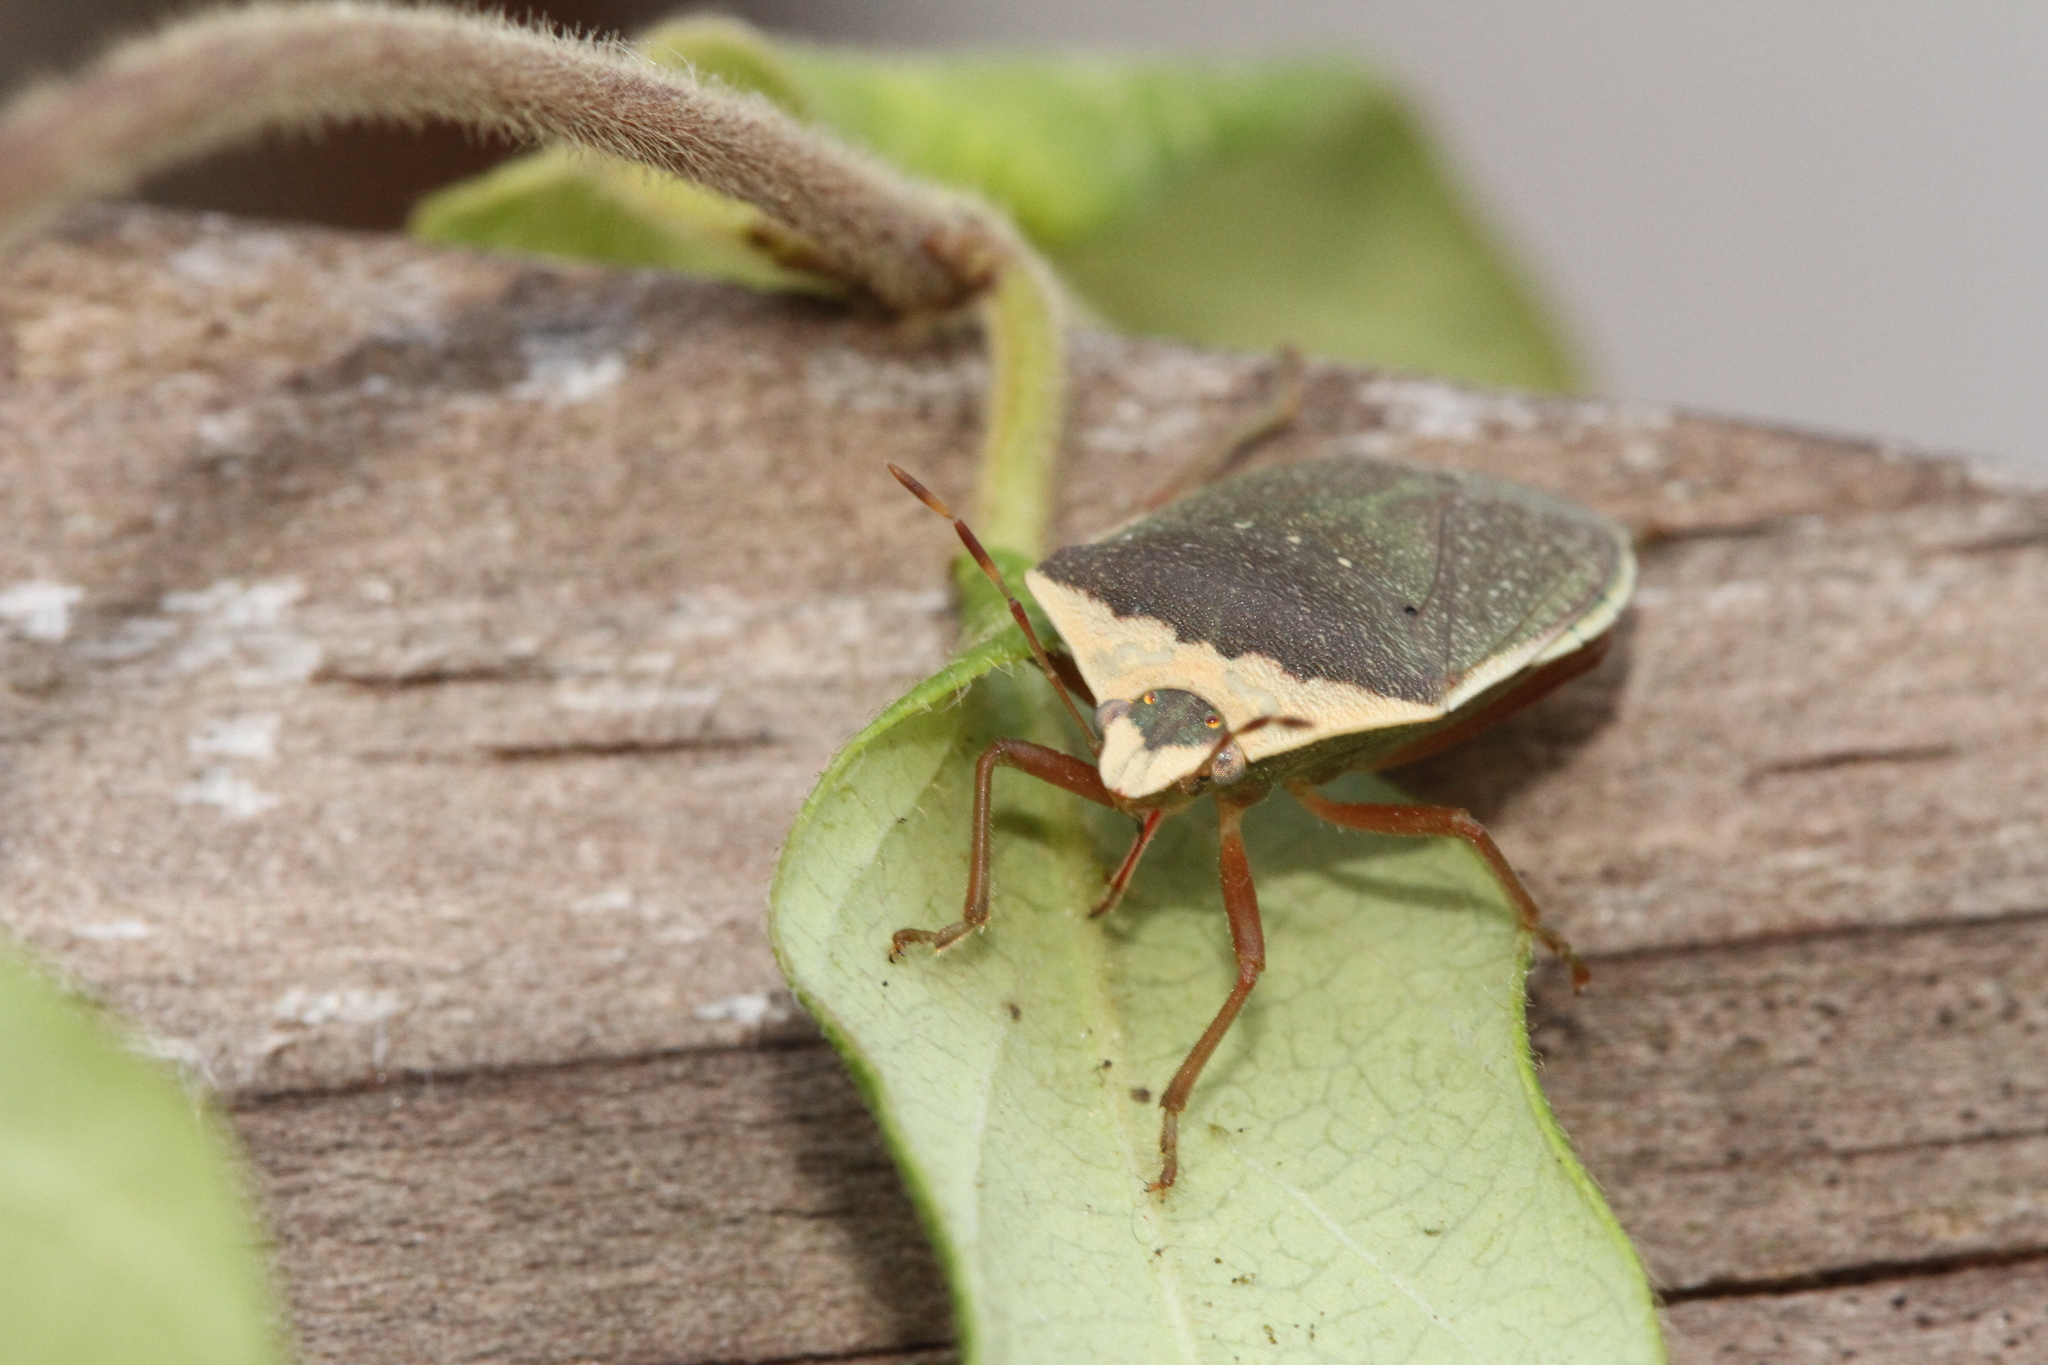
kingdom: Animalia
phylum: Arthropoda
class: Insecta
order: Hemiptera
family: Pentatomidae
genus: Nezara
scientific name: Nezara viridula
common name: Southern green stink bug
